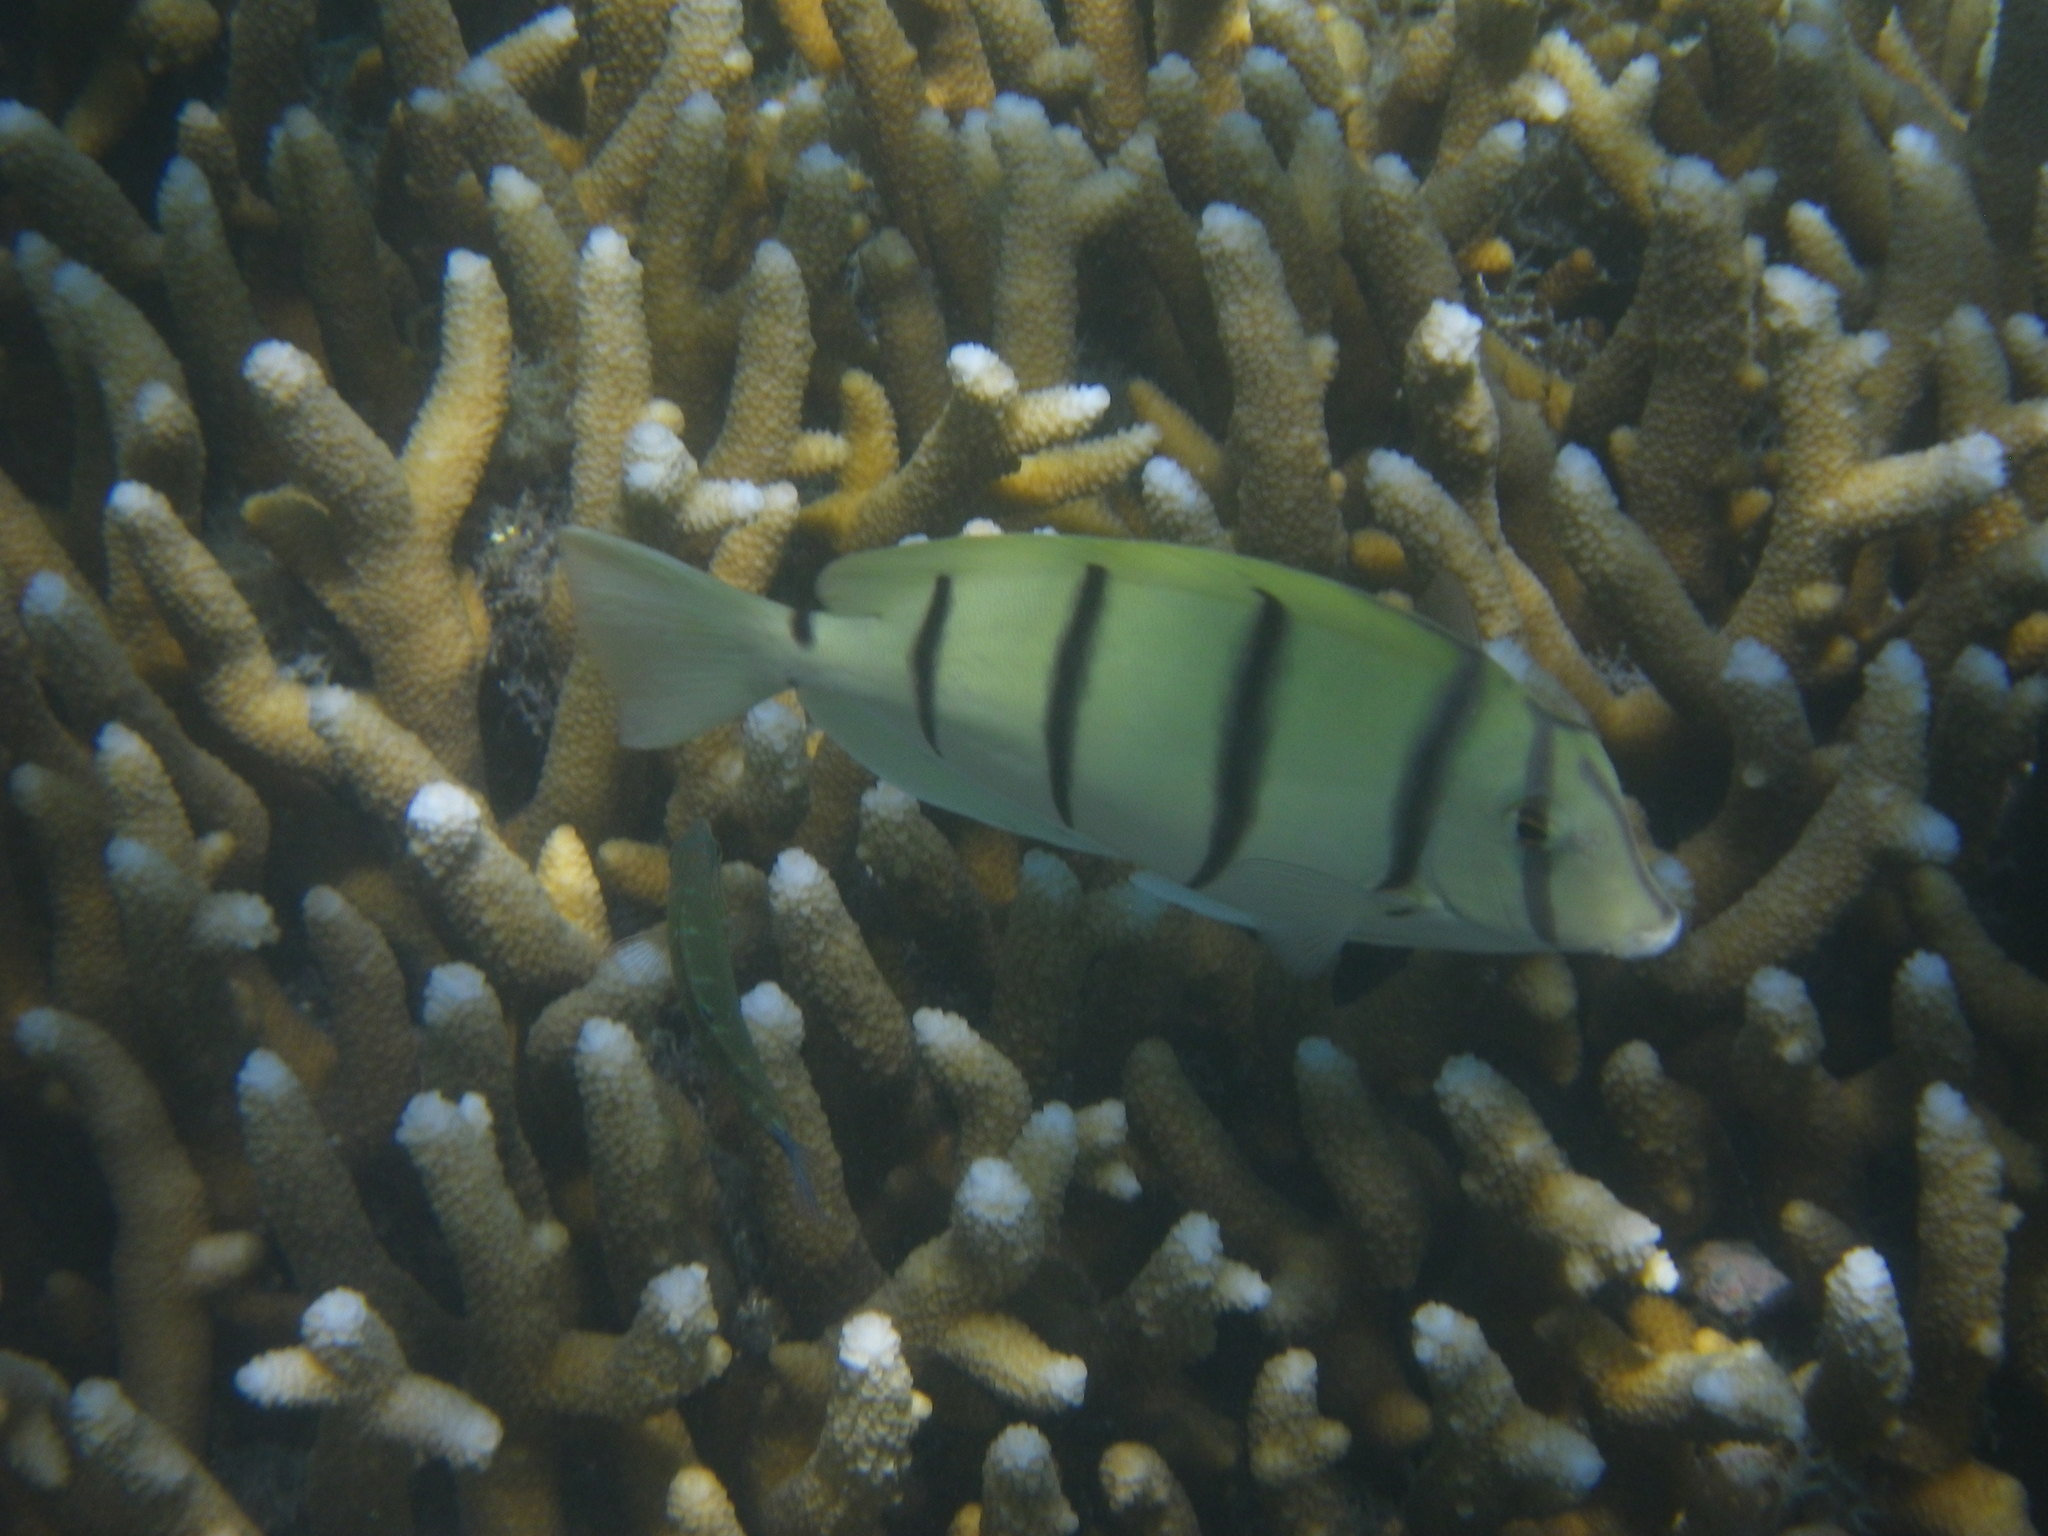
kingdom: Animalia
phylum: Chordata
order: Perciformes
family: Acanthuridae
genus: Acanthurus
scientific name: Acanthurus triostegus
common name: Convict surgeonfish
